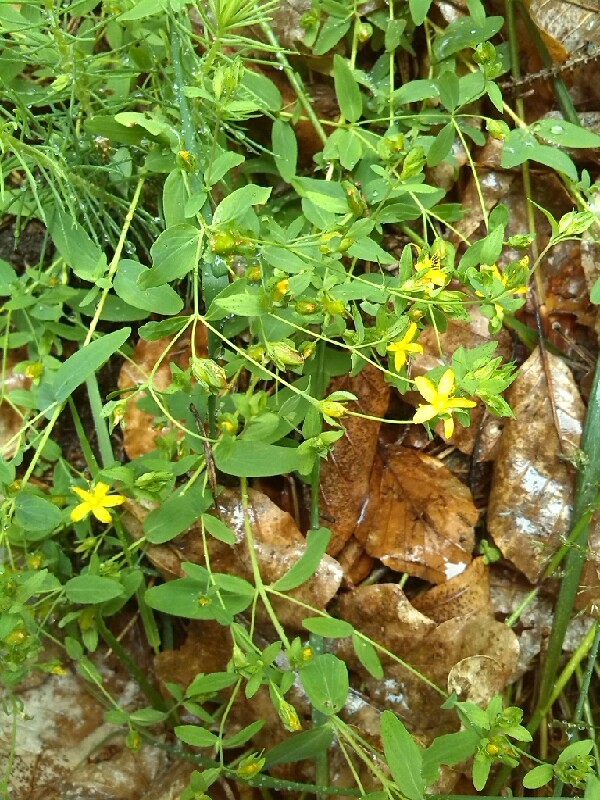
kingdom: Plantae
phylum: Tracheophyta
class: Magnoliopsida
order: Malpighiales
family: Hypericaceae
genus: Hypericum
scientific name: Hypericum humifusum
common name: Trailing st. john's-wort
